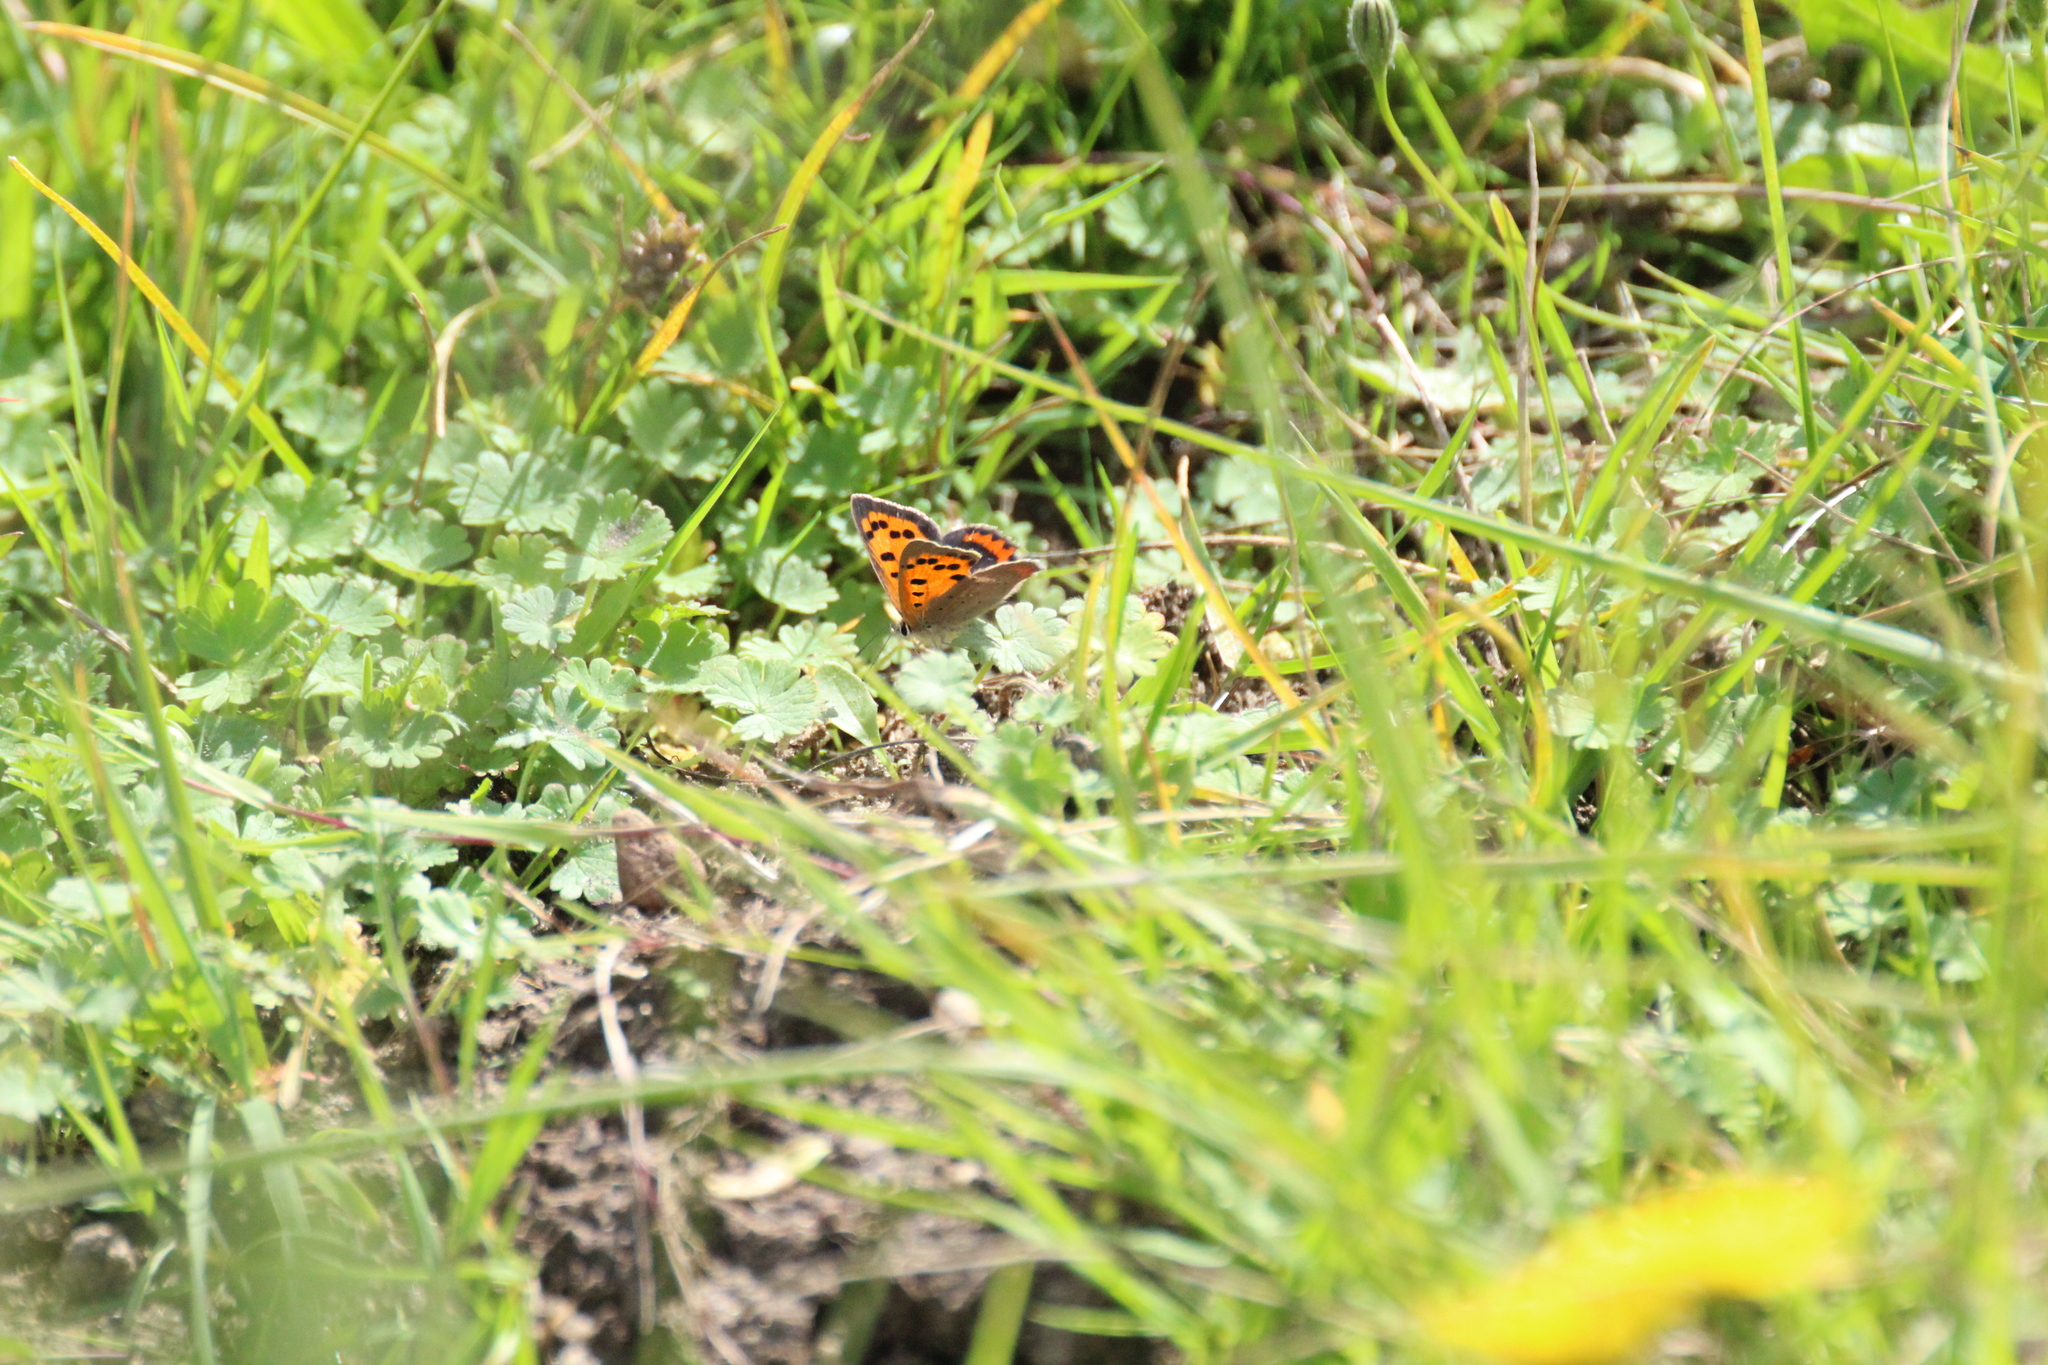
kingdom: Animalia
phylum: Arthropoda
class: Insecta
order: Lepidoptera
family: Lycaenidae
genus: Lycaena
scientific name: Lycaena phlaeas
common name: Small copper
